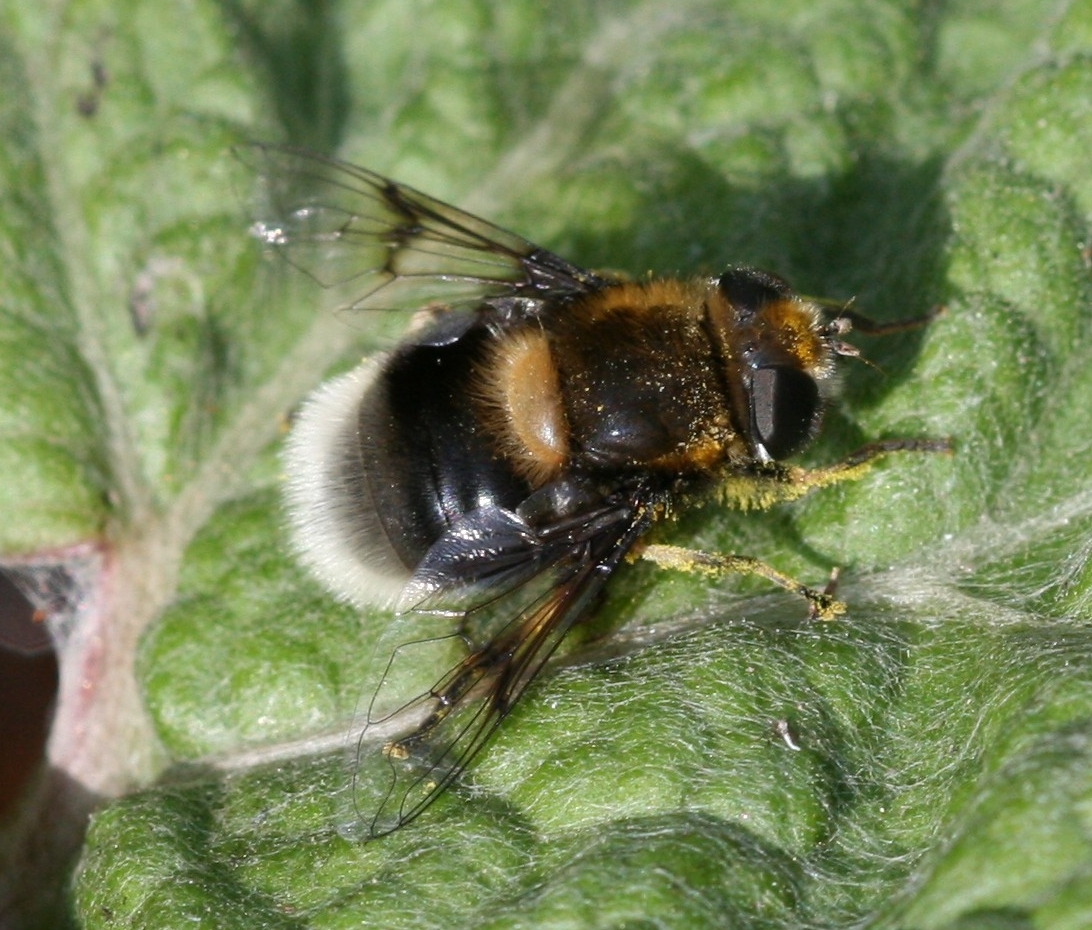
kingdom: Animalia
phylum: Arthropoda
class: Insecta
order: Diptera
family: Syrphidae
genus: Eristalis
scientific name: Eristalis intricaria
